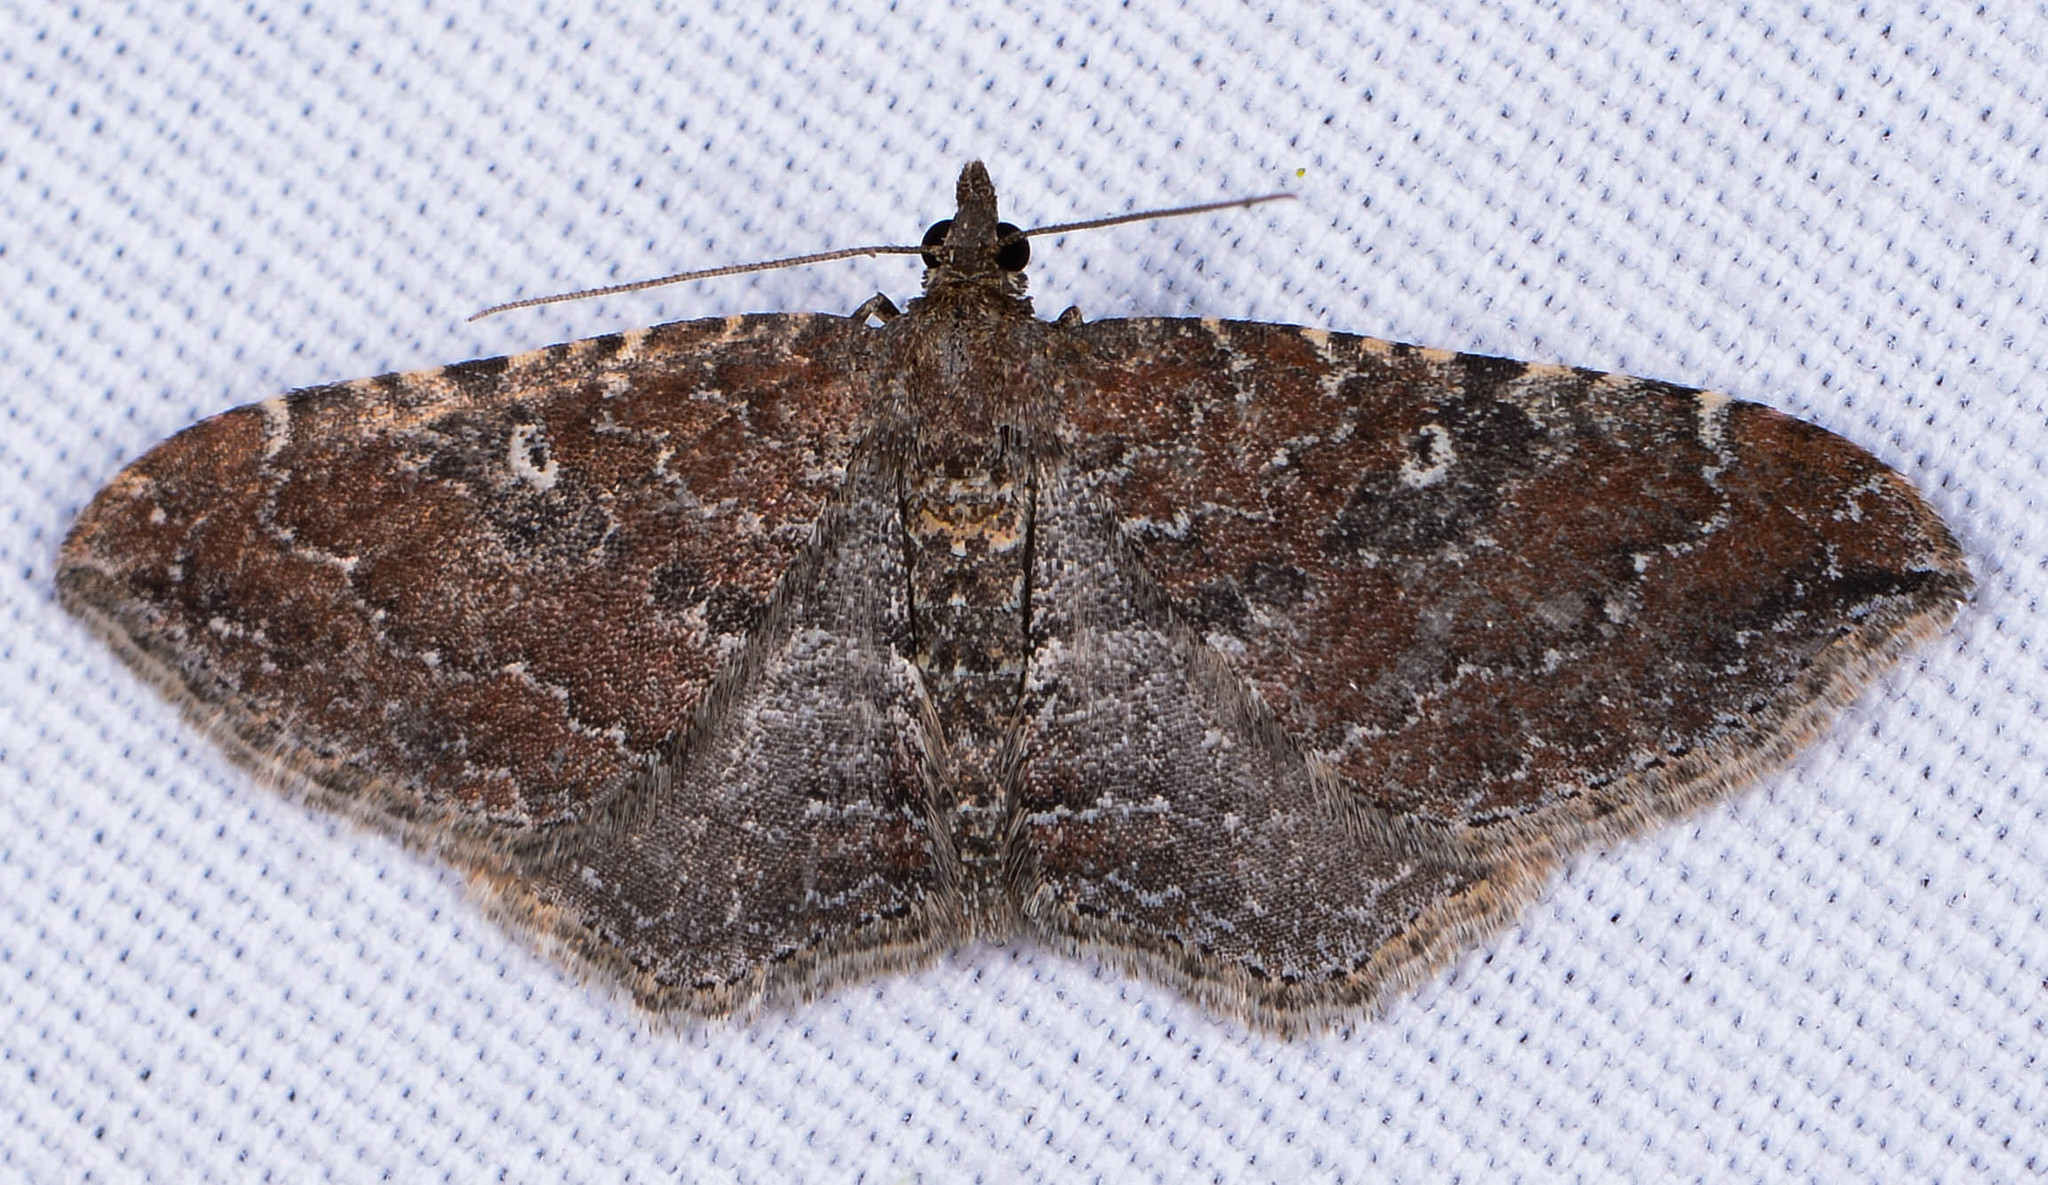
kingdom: Animalia
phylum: Arthropoda
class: Insecta
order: Lepidoptera
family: Geometridae
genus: Orthonama
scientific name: Orthonama obstipata
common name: The gem
